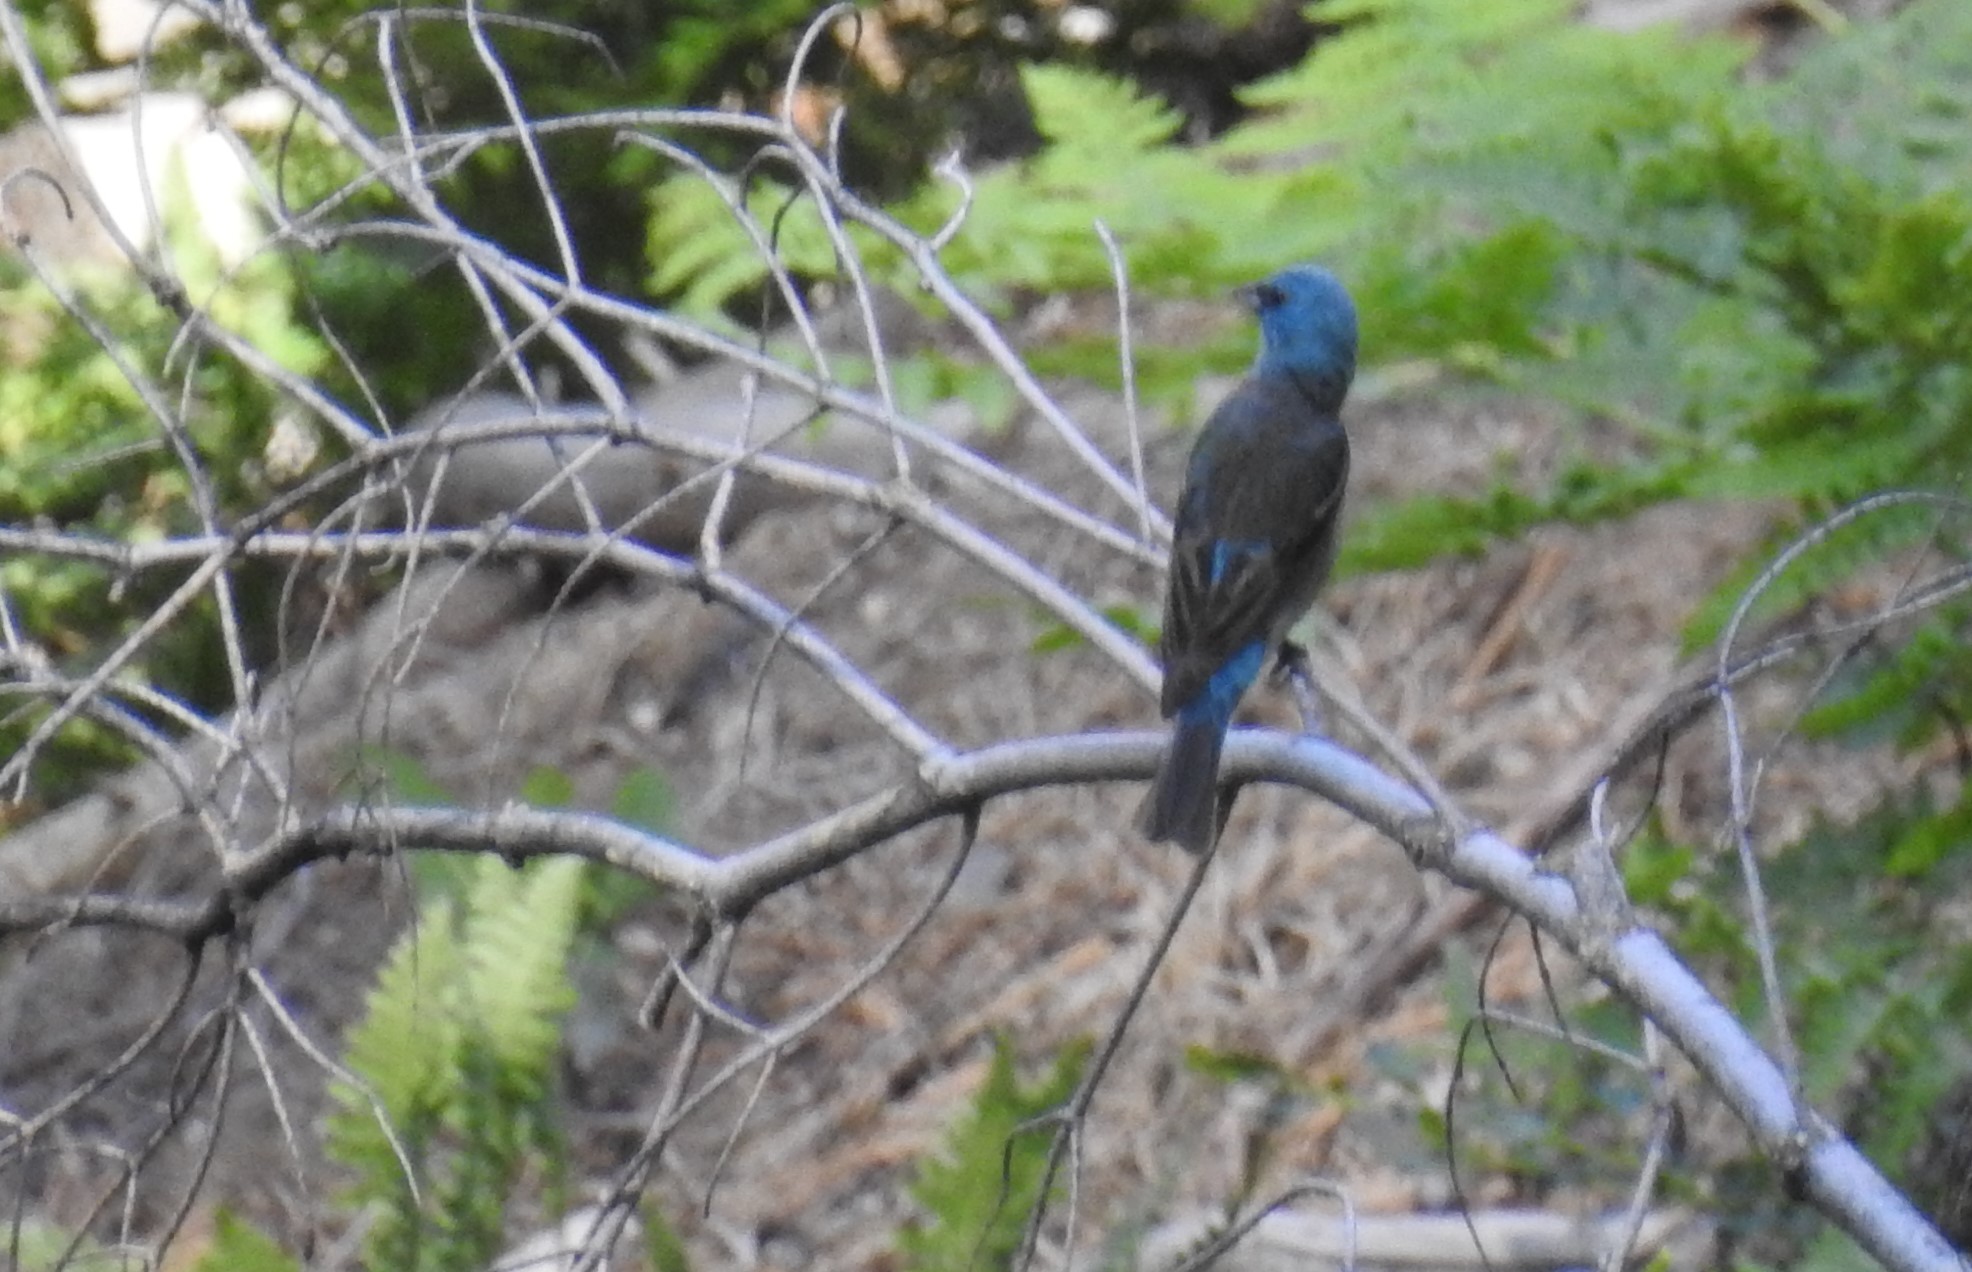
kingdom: Animalia
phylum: Chordata
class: Aves
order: Passeriformes
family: Cardinalidae
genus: Passerina
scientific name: Passerina amoena
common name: Lazuli bunting
